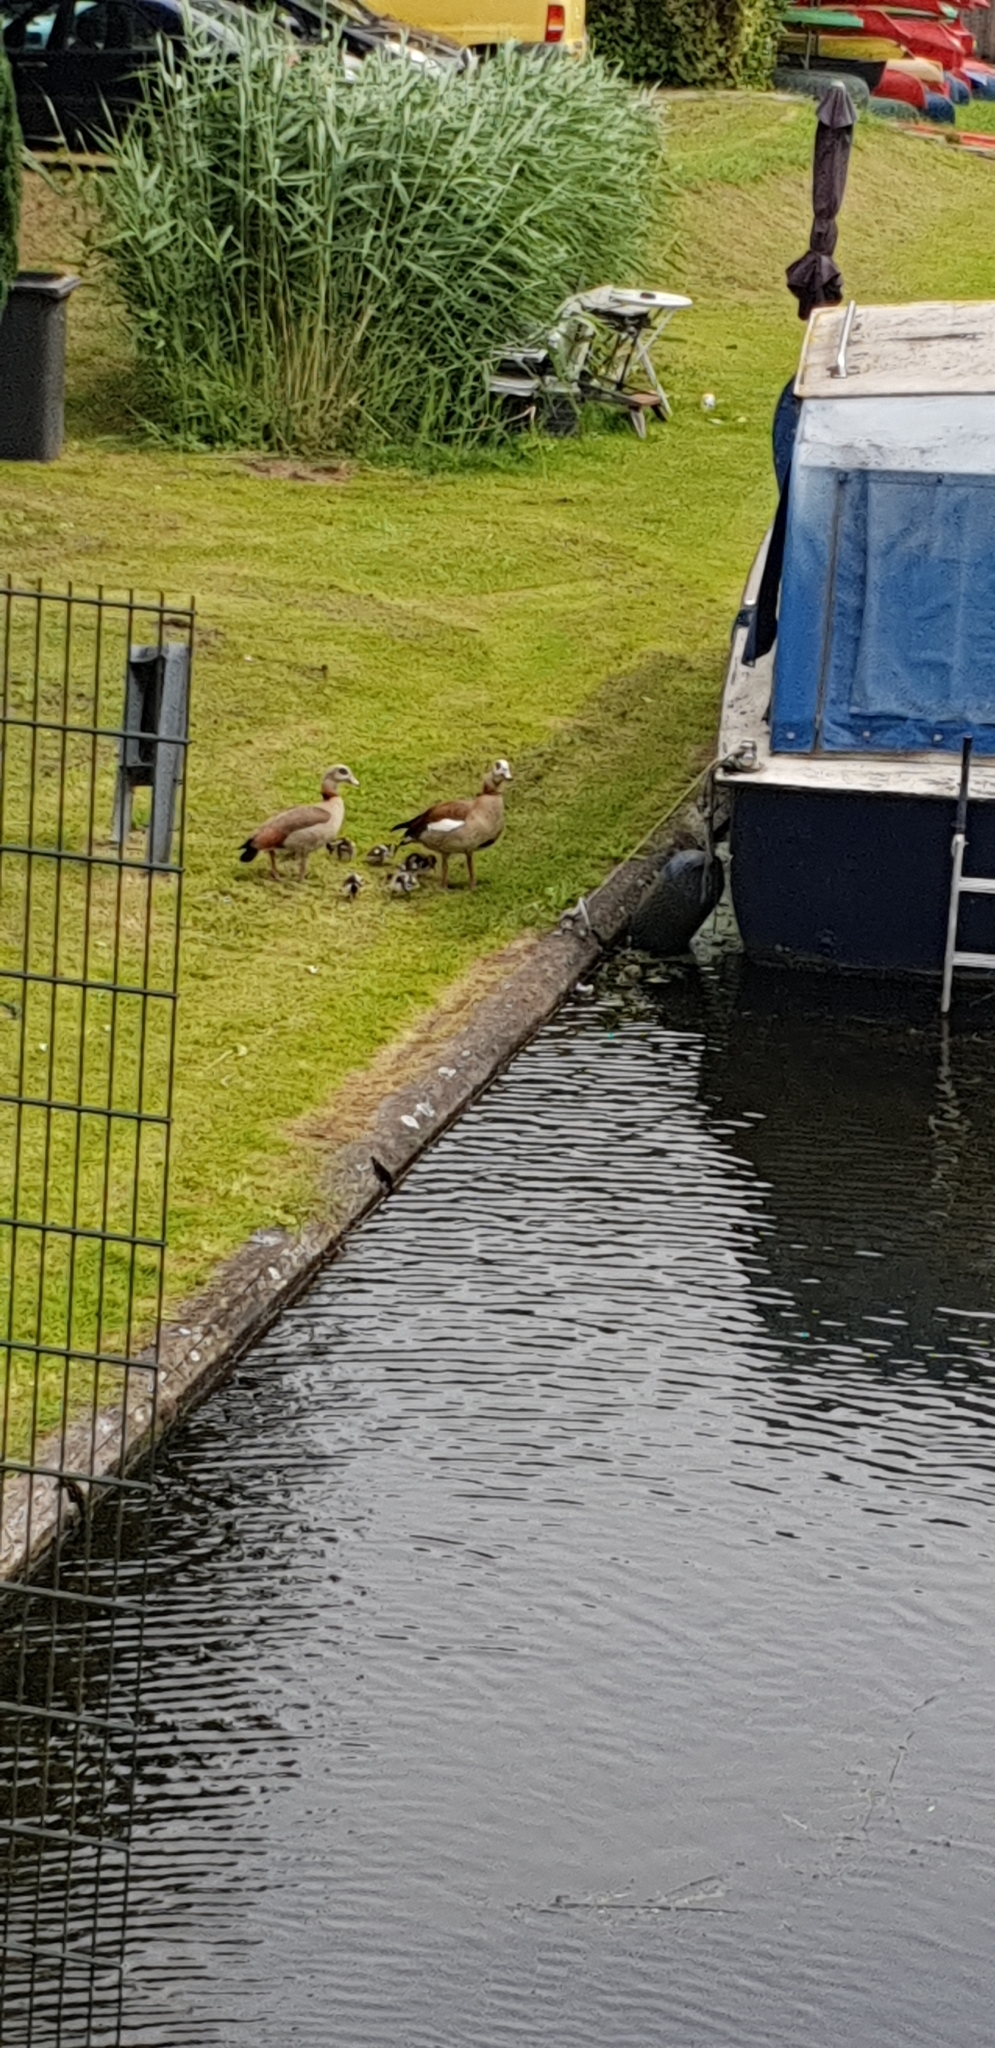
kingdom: Animalia
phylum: Chordata
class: Aves
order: Anseriformes
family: Anatidae
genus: Alopochen
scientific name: Alopochen aegyptiaca
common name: Egyptian goose
